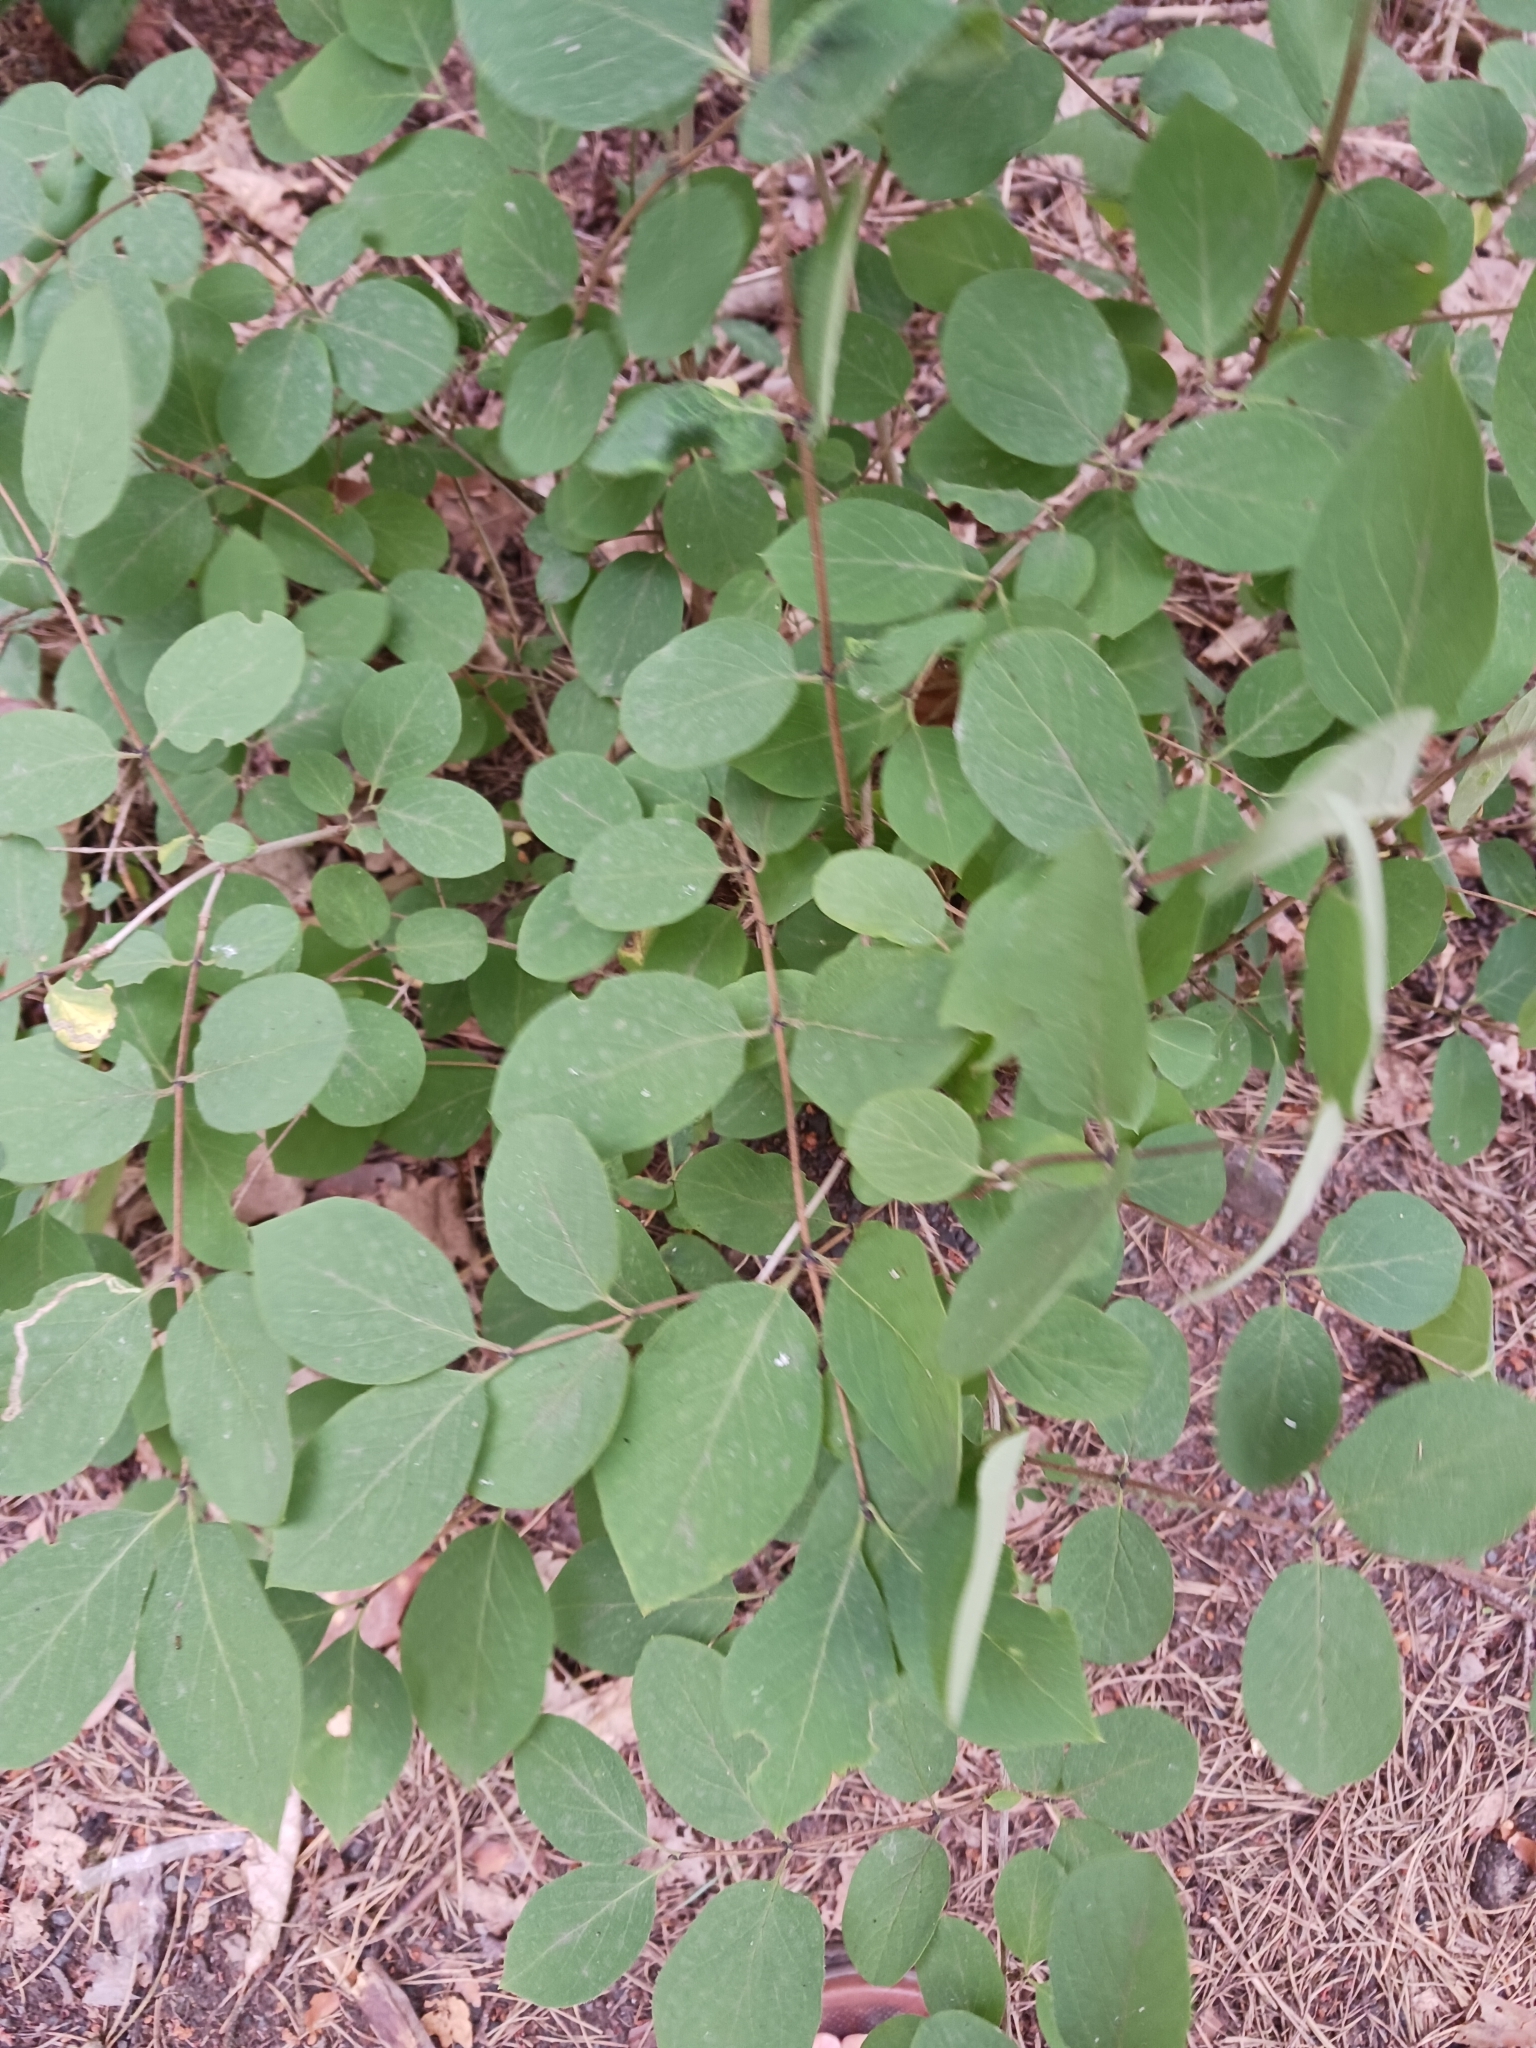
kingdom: Plantae
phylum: Tracheophyta
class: Magnoliopsida
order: Dipsacales
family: Caprifoliaceae
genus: Lonicera
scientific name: Lonicera xylosteum
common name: Fly honeysuckle
